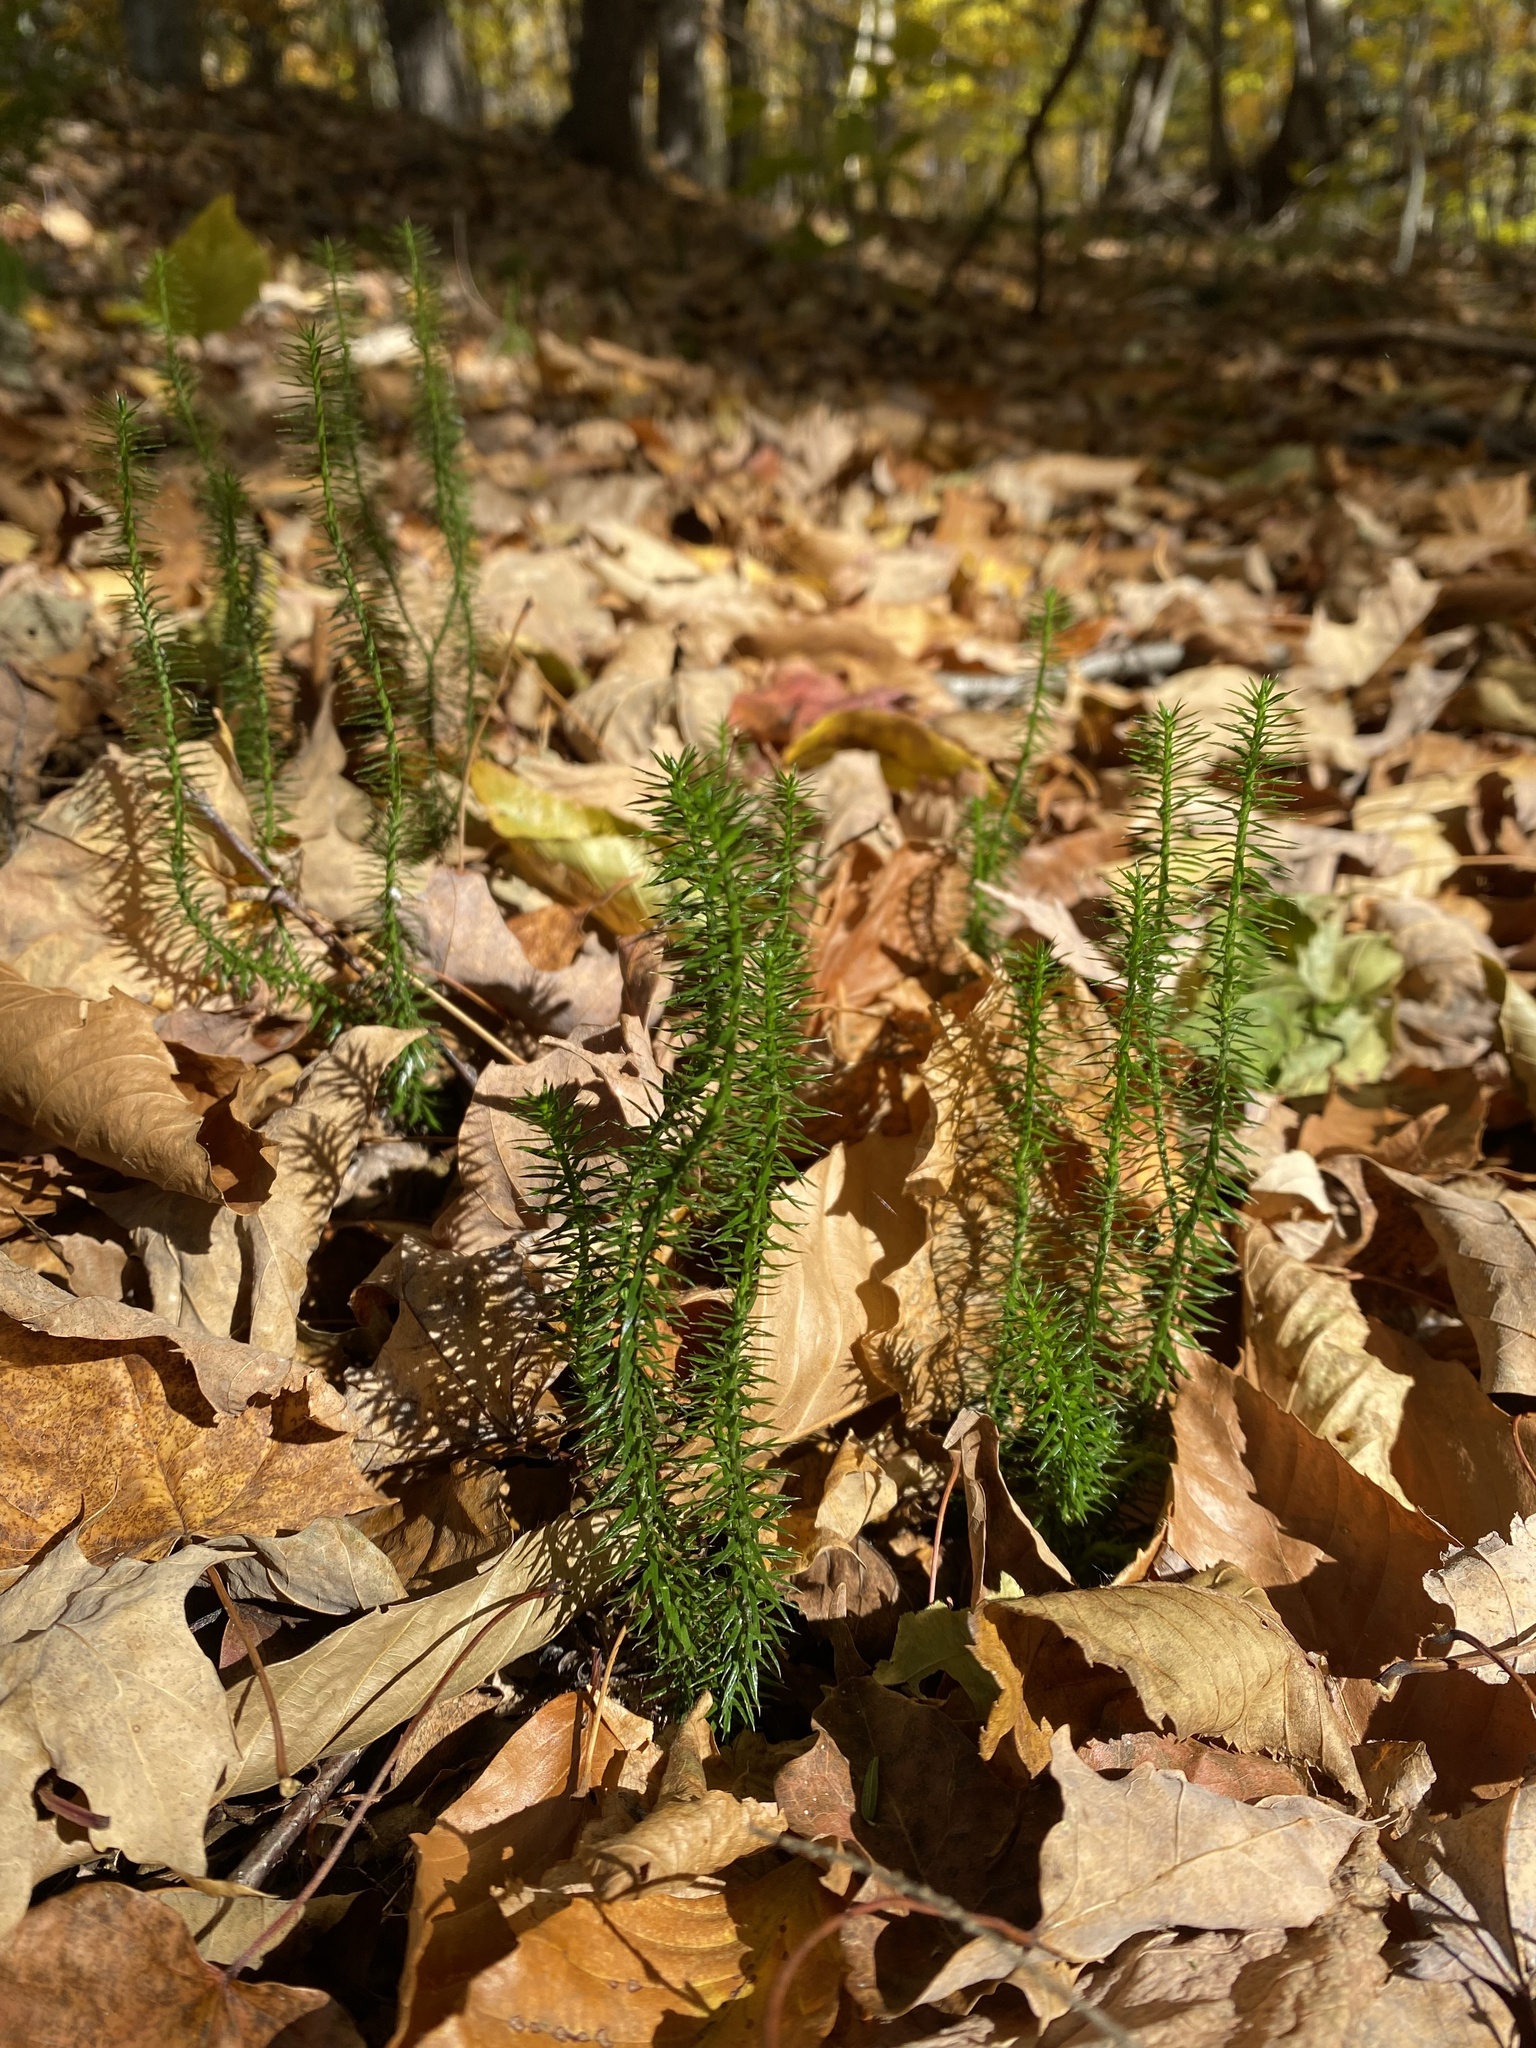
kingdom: Plantae
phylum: Tracheophyta
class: Lycopodiopsida
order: Lycopodiales
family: Lycopodiaceae
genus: Spinulum
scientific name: Spinulum annotinum
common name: Interrupted club-moss
